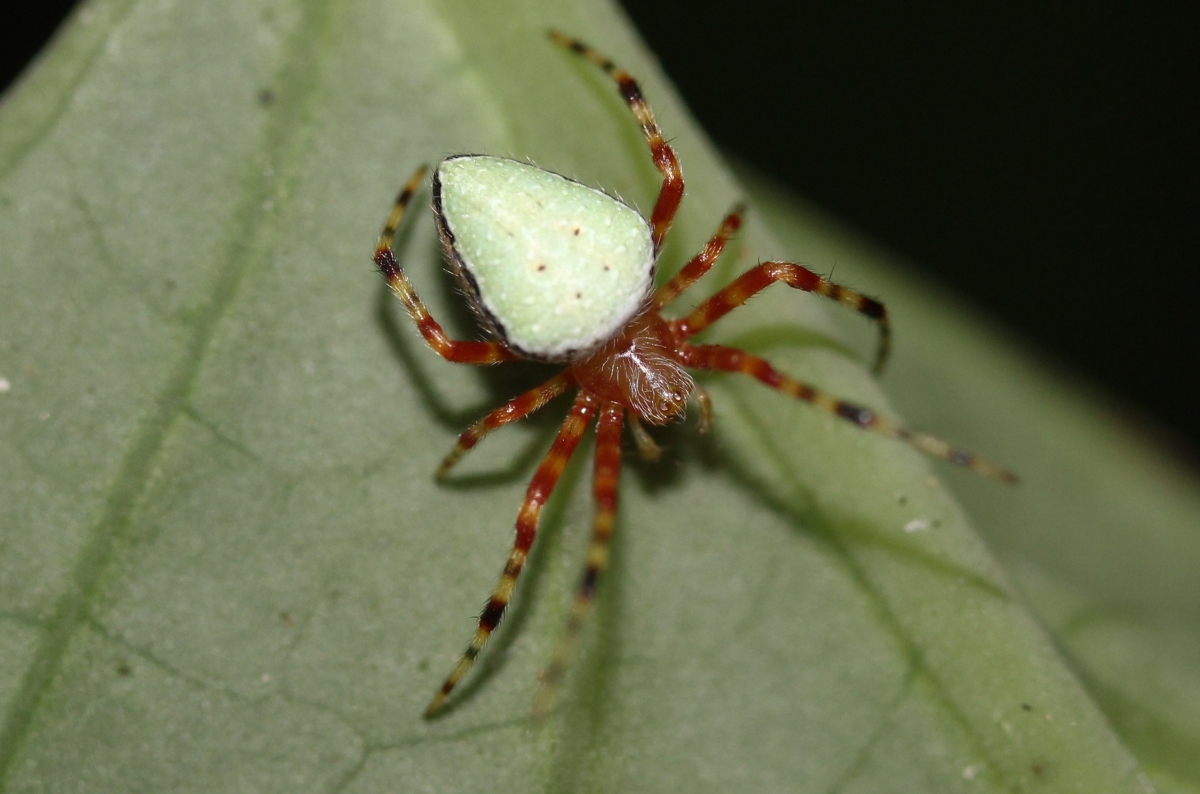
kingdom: Animalia
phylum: Arthropoda
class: Arachnida
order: Araneae
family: Araneidae
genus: Eriophora
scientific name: Eriophora nephiloides
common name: Orb weavers
